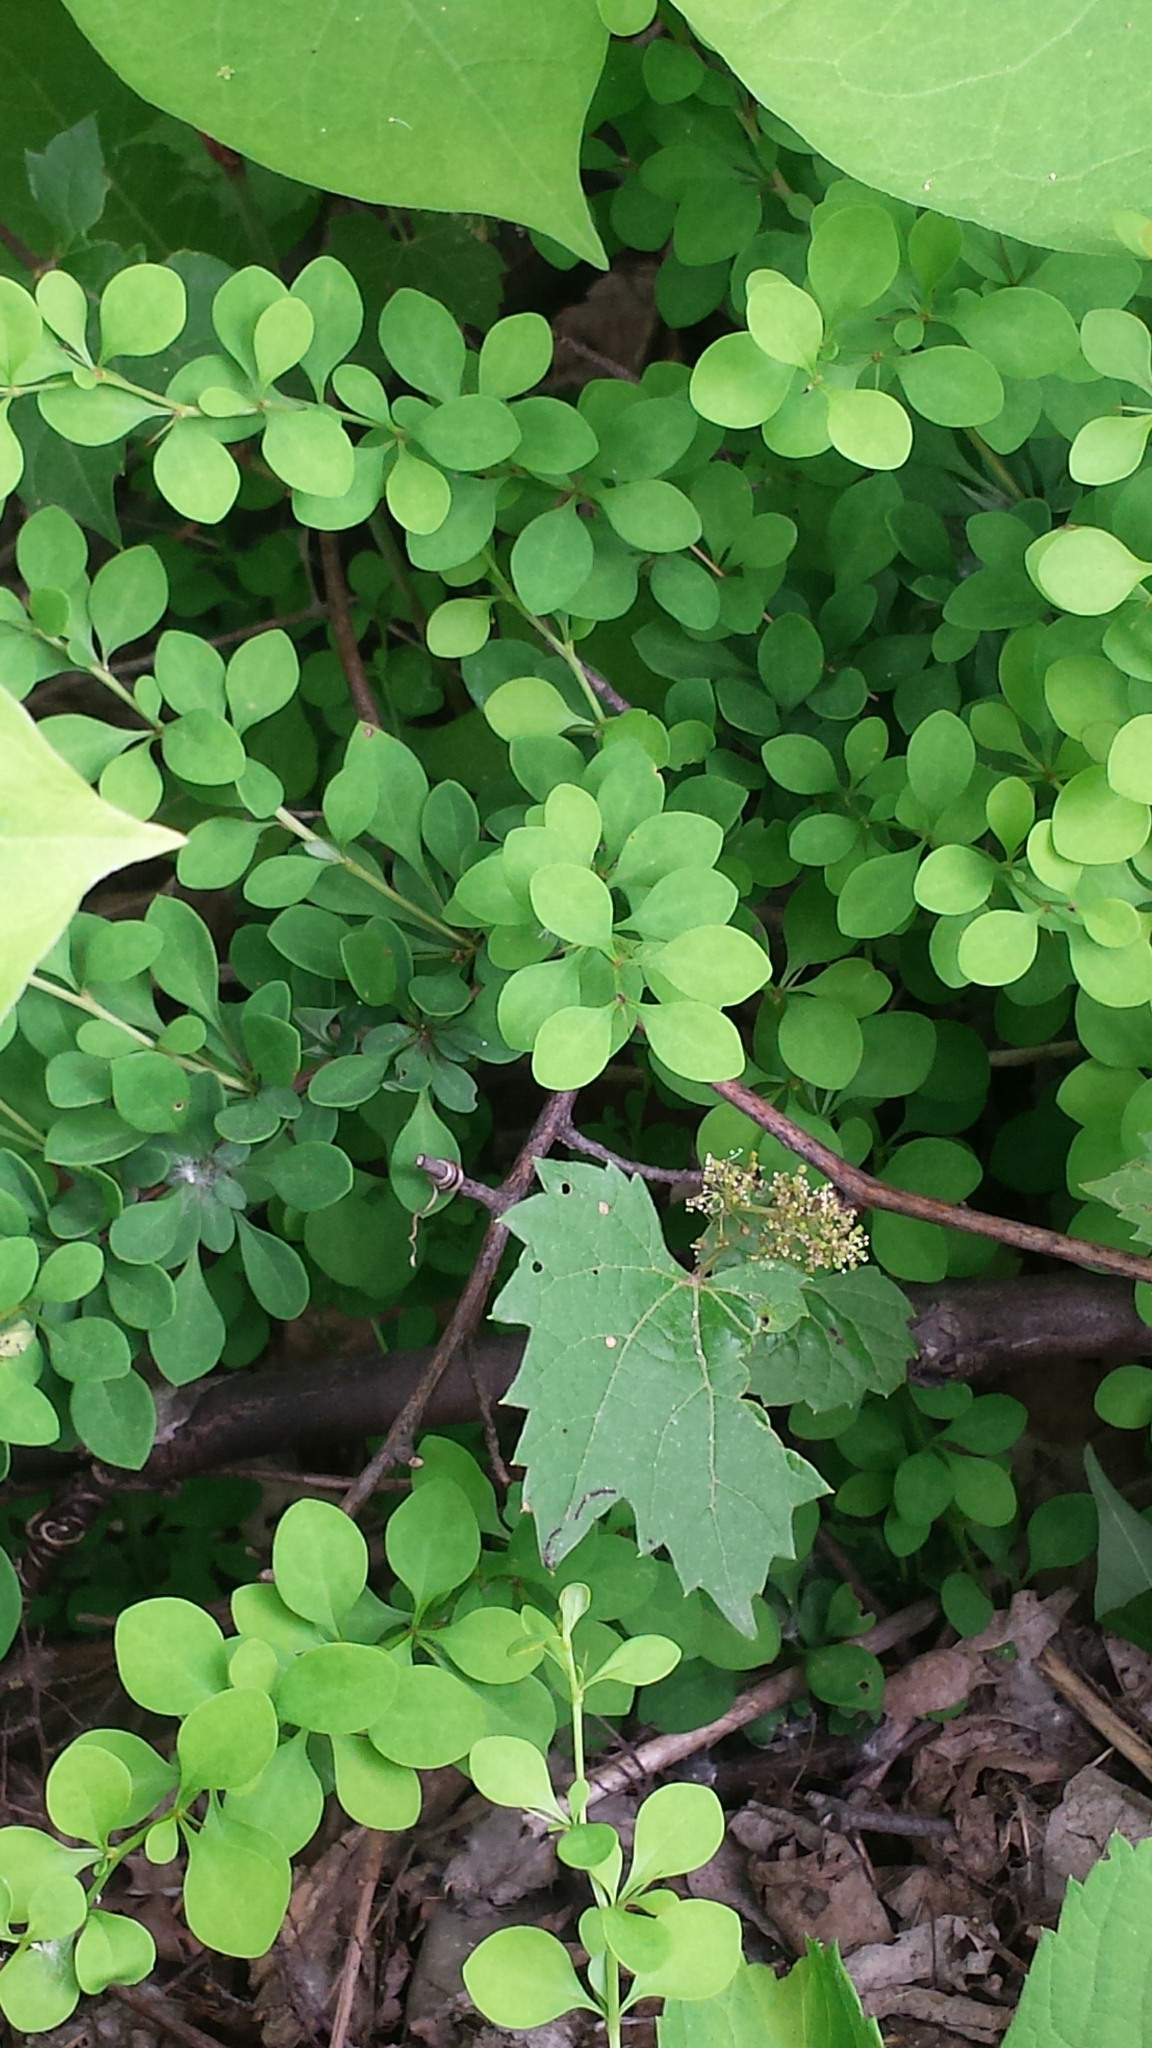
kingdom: Plantae
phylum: Tracheophyta
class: Magnoliopsida
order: Ranunculales
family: Berberidaceae
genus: Berberis
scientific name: Berberis thunbergii
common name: Japanese barberry
